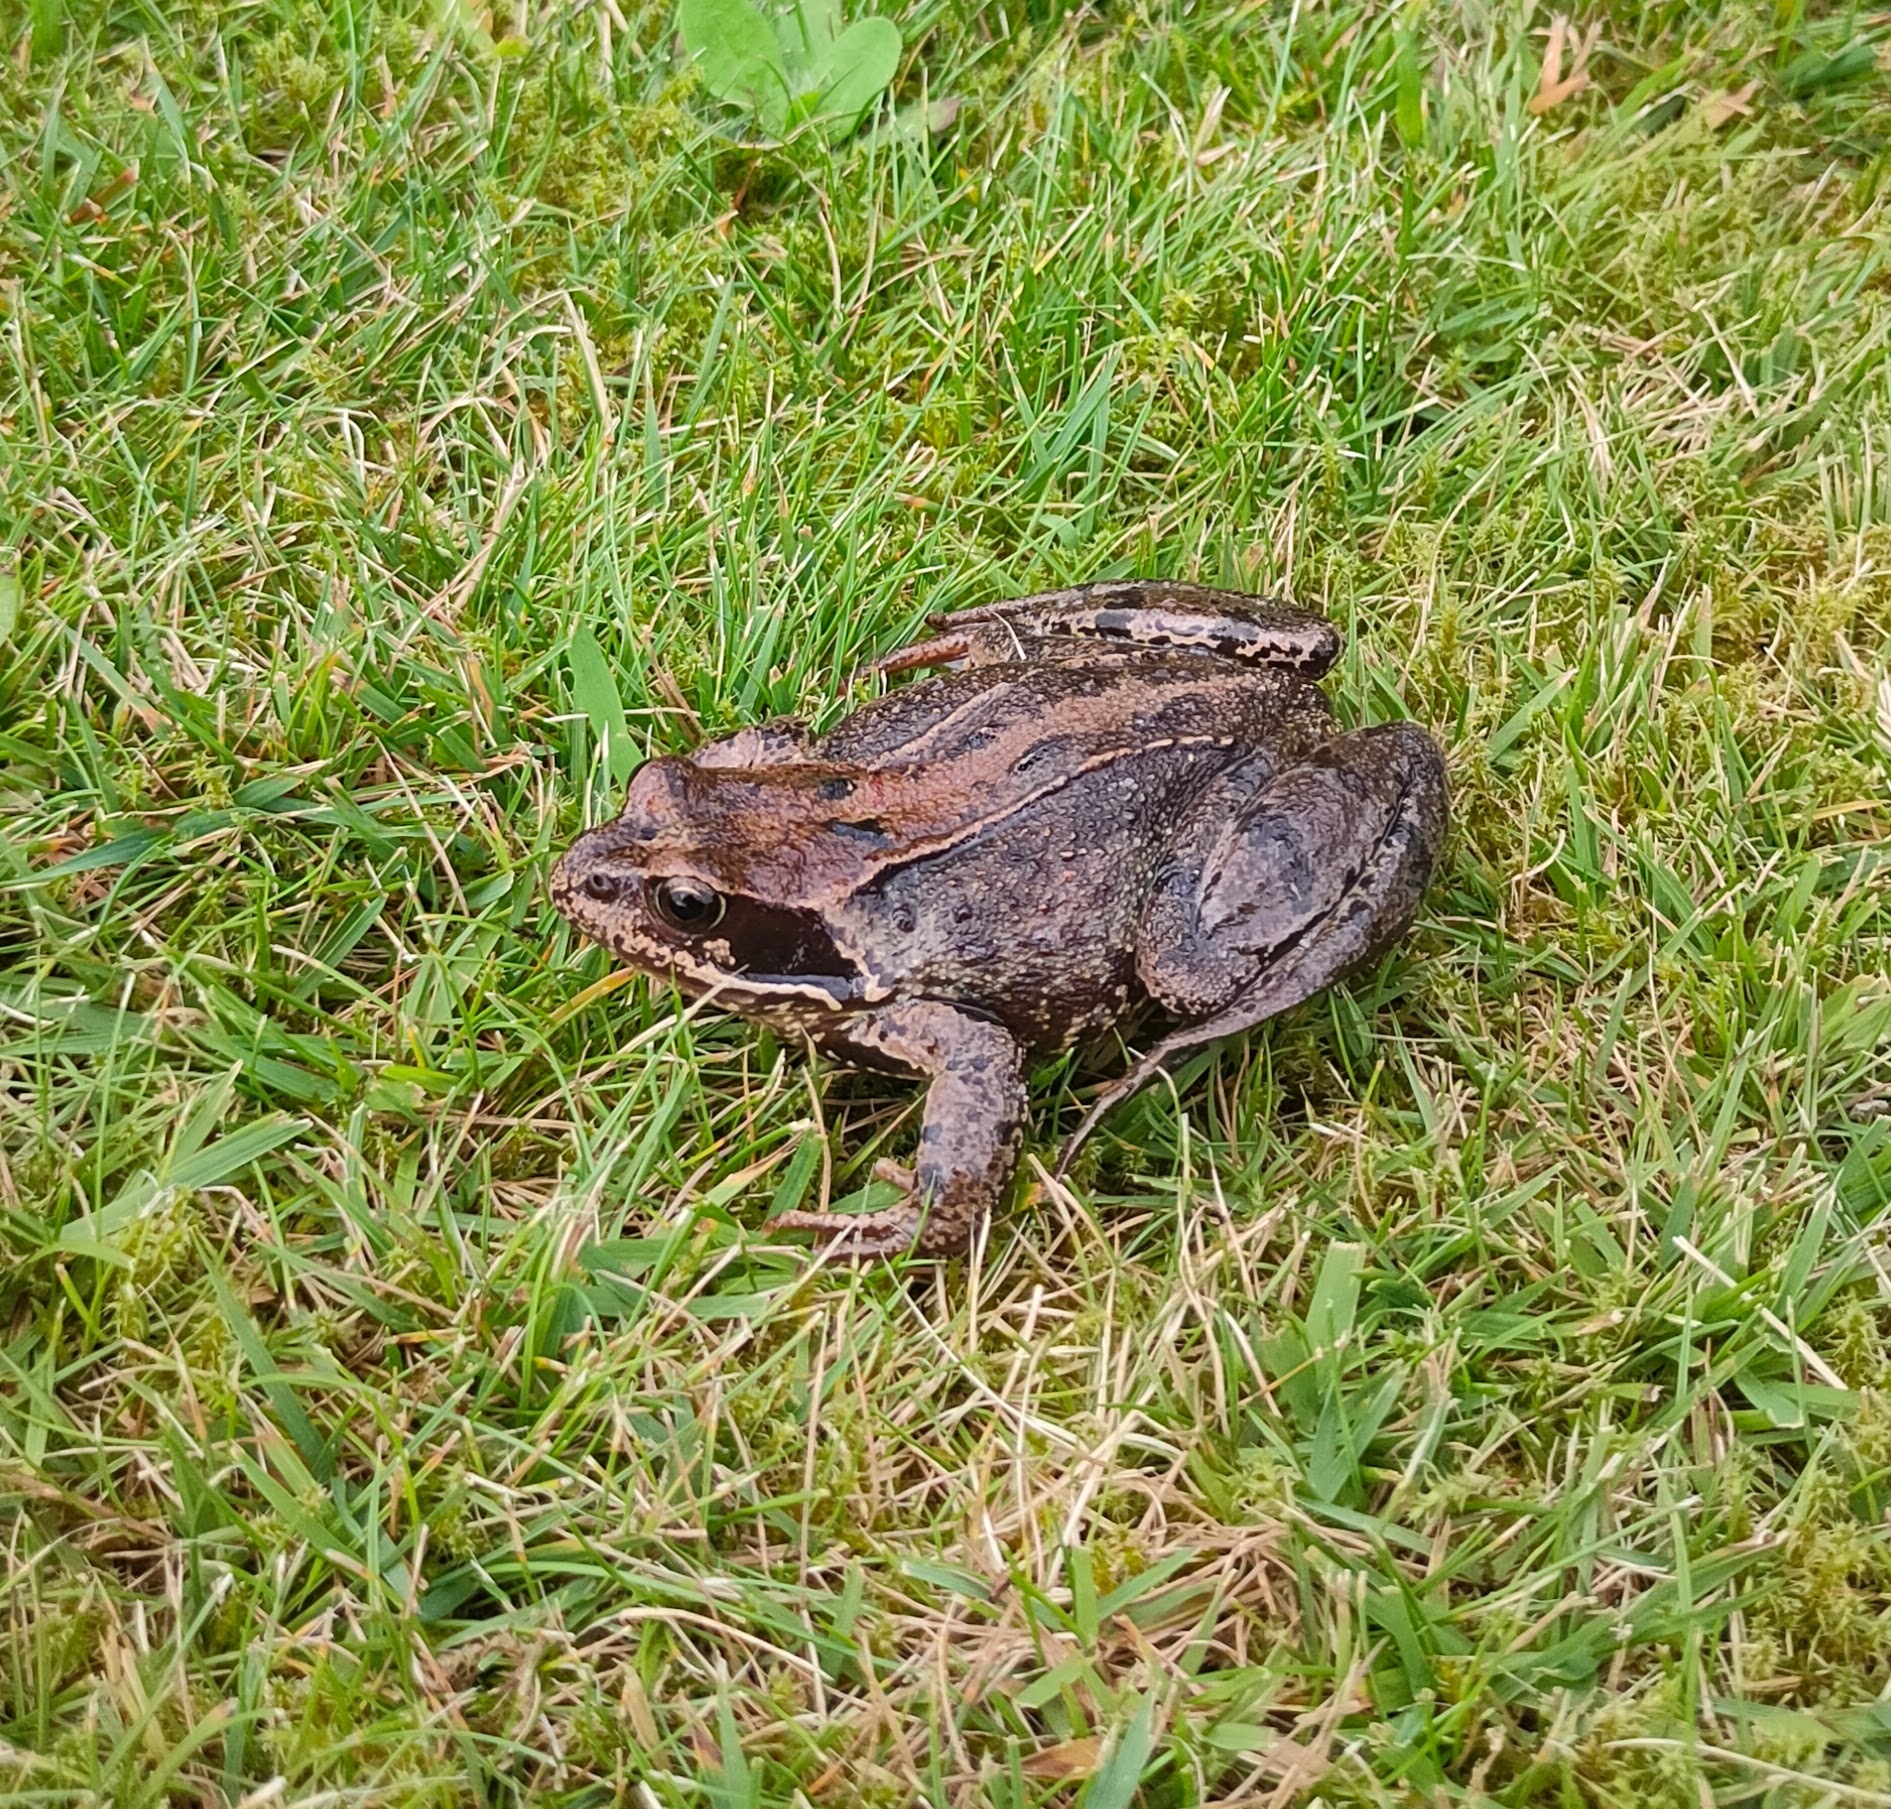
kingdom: Animalia
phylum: Chordata
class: Amphibia
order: Anura
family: Ranidae
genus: Rana
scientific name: Rana temporaria
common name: Common frog
